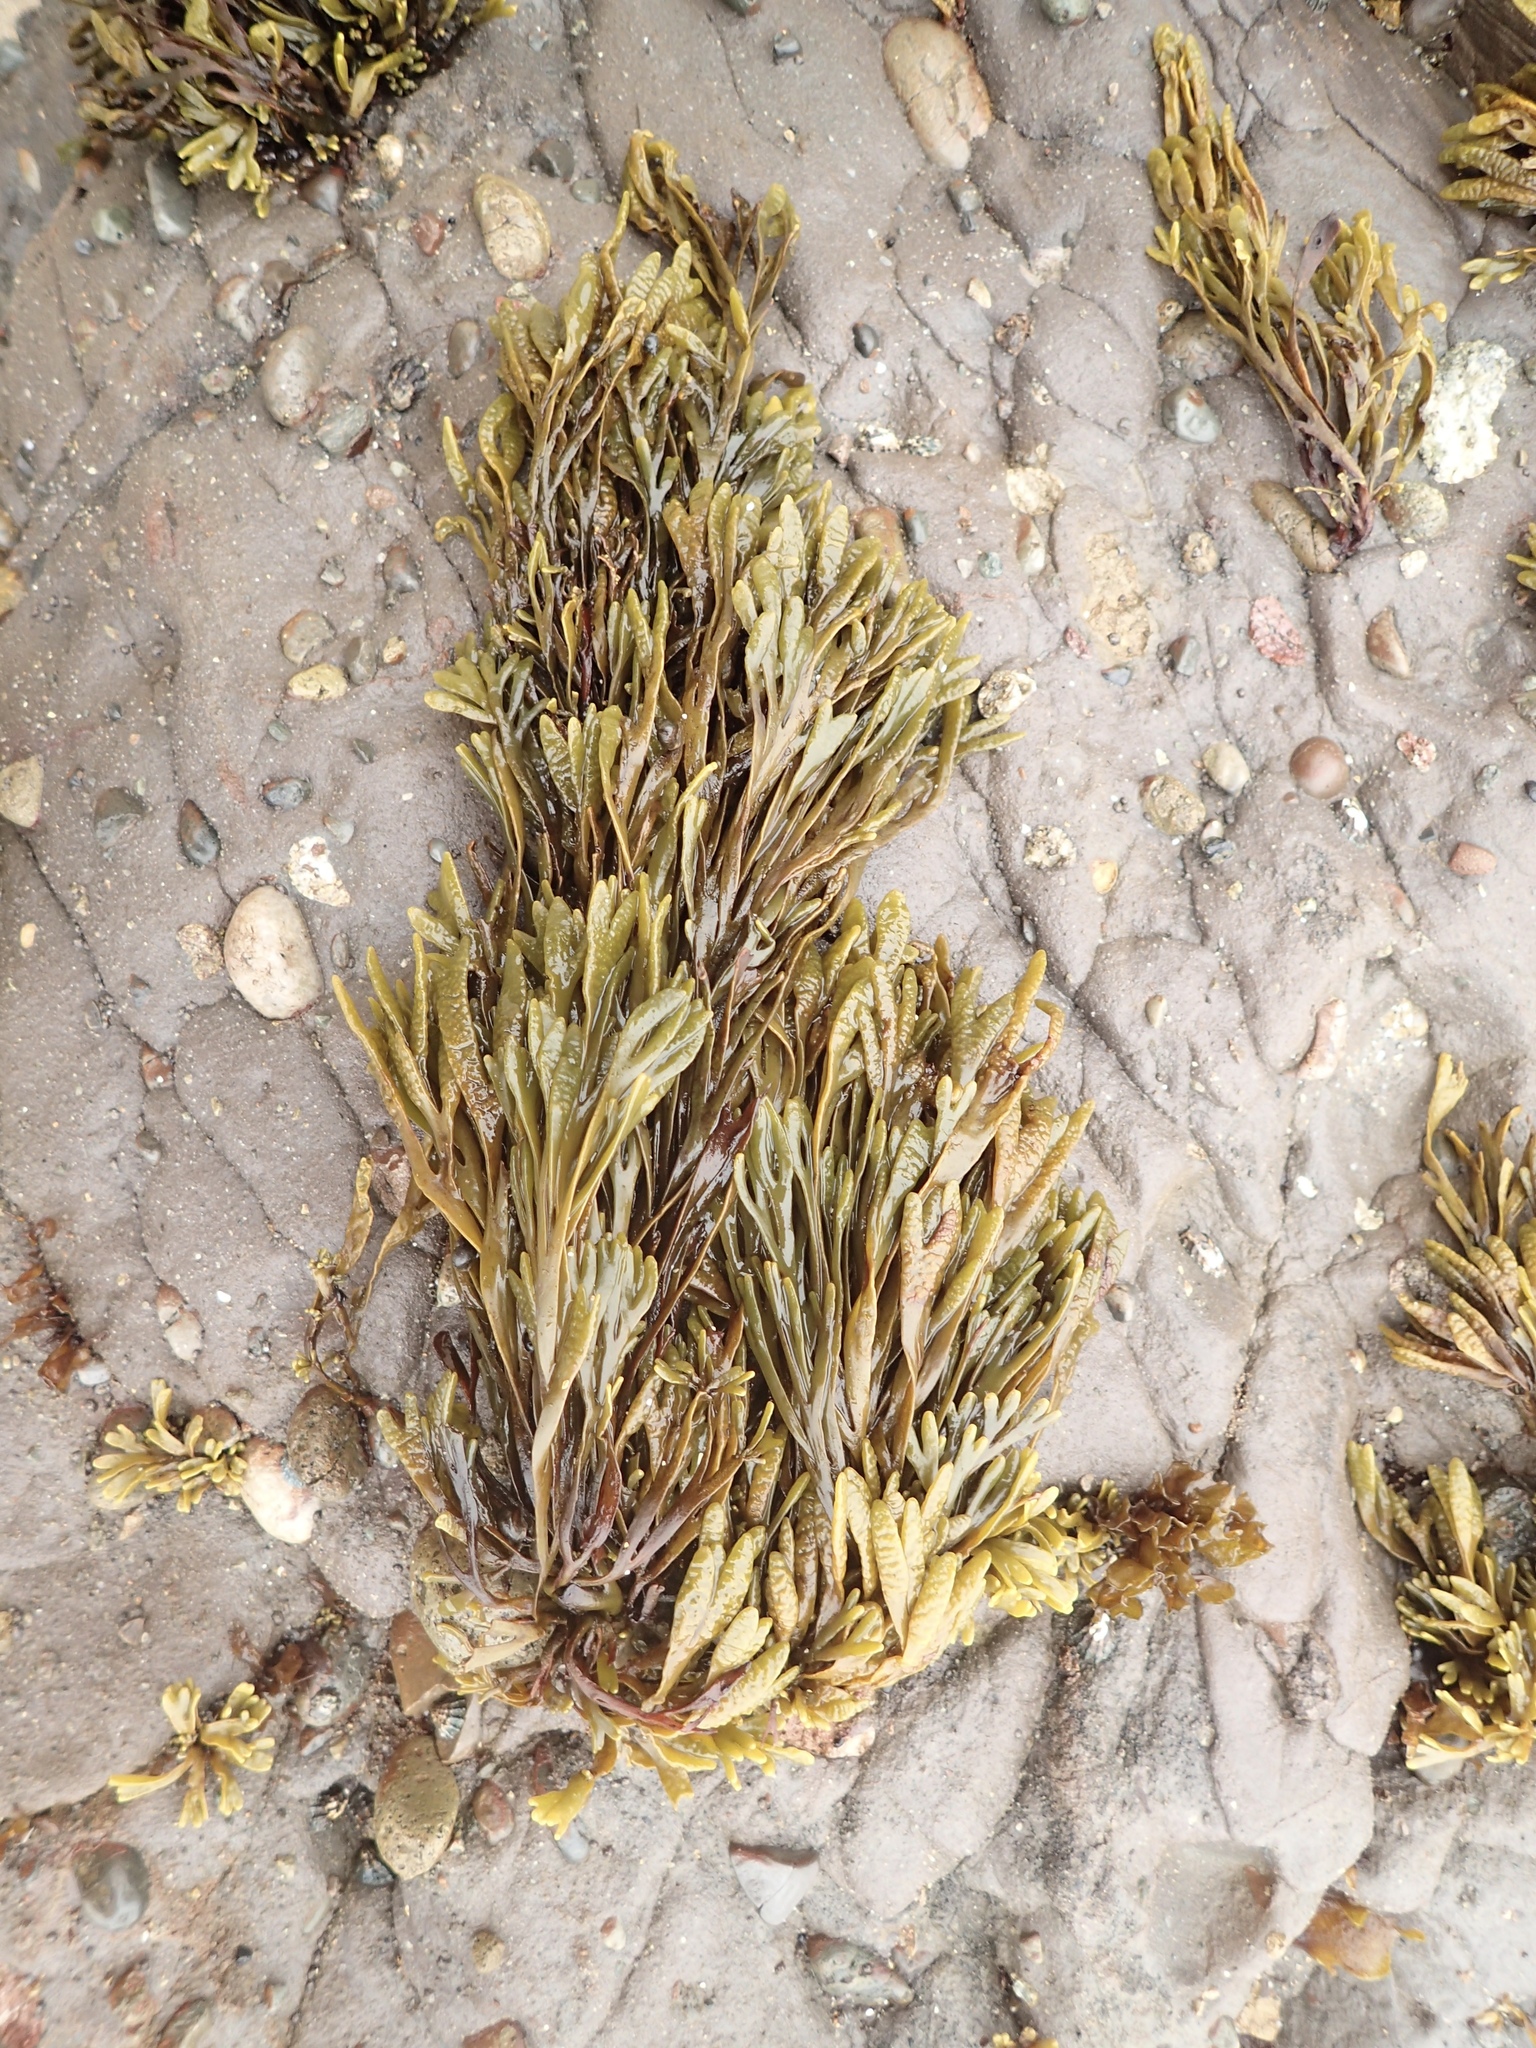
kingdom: Chromista
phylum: Ochrophyta
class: Phaeophyceae
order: Fucales
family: Fucaceae
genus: Pelvetiopsis
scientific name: Pelvetiopsis limitata
